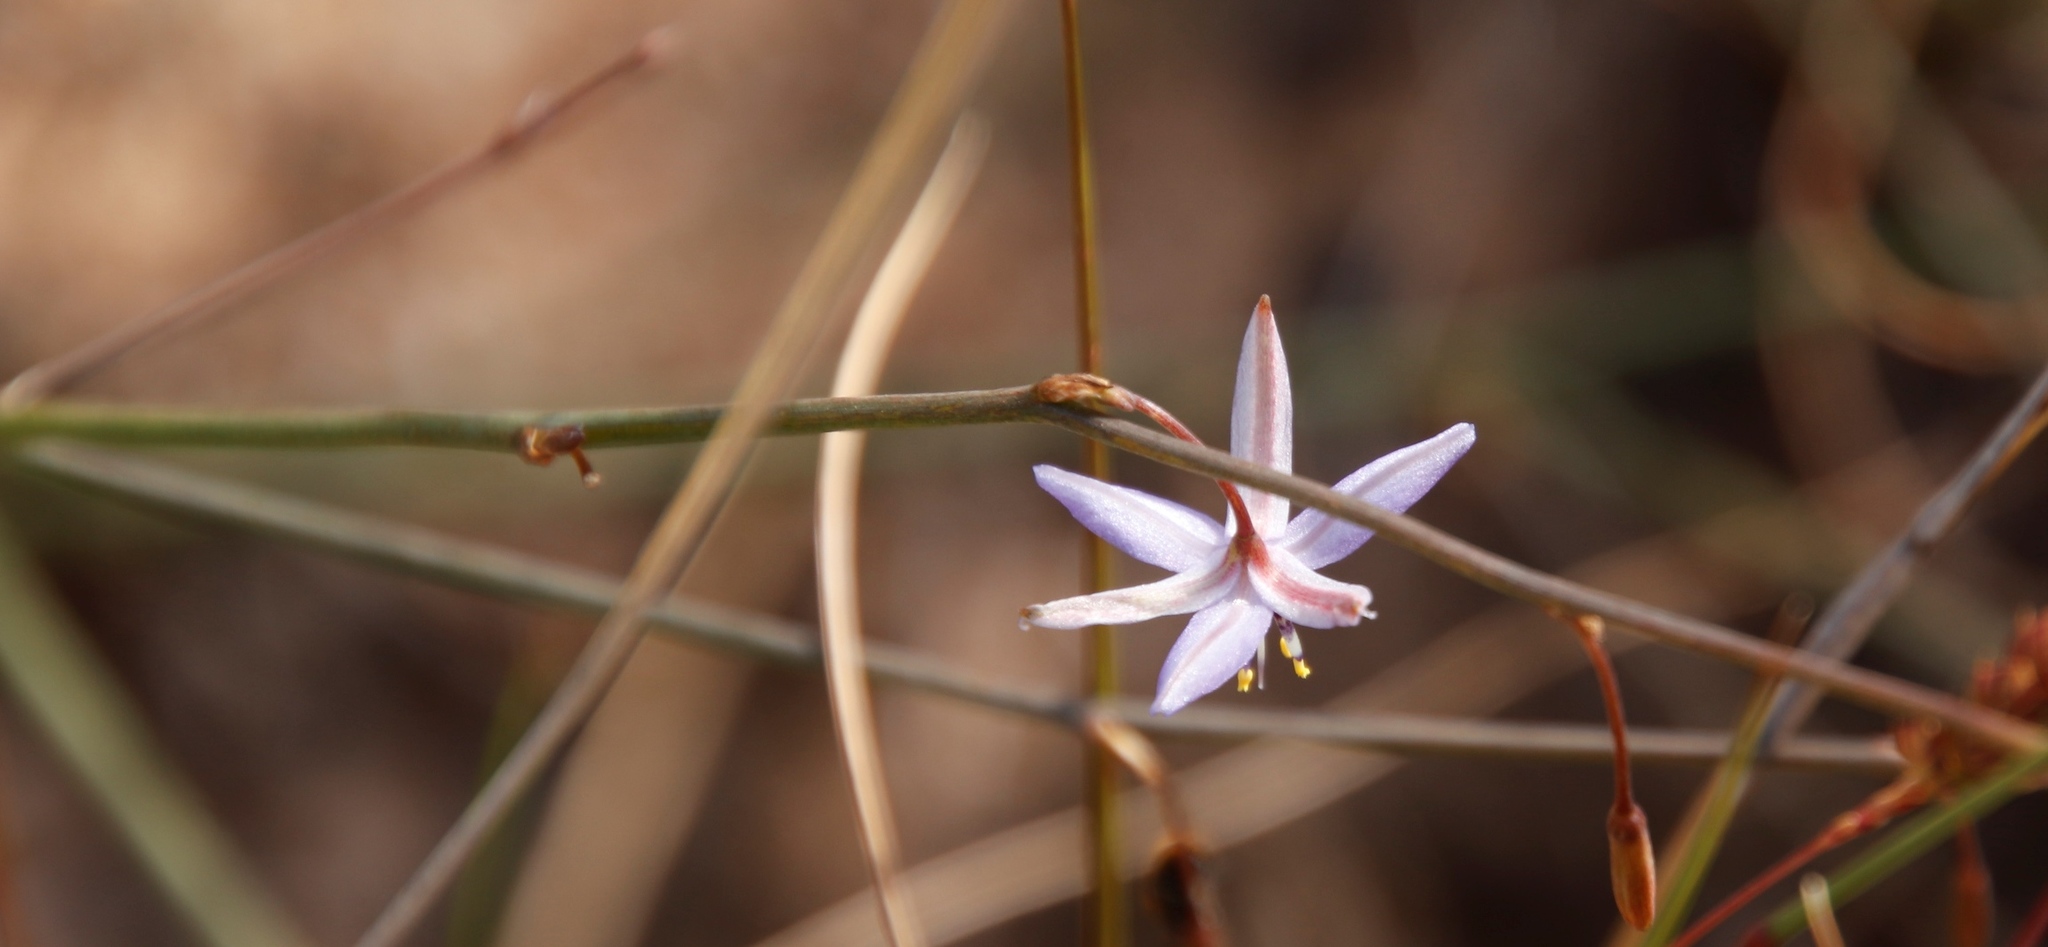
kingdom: Plantae
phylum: Tracheophyta
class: Liliopsida
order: Asparagales
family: Asphodelaceae
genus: Caesia
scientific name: Caesia contorta
